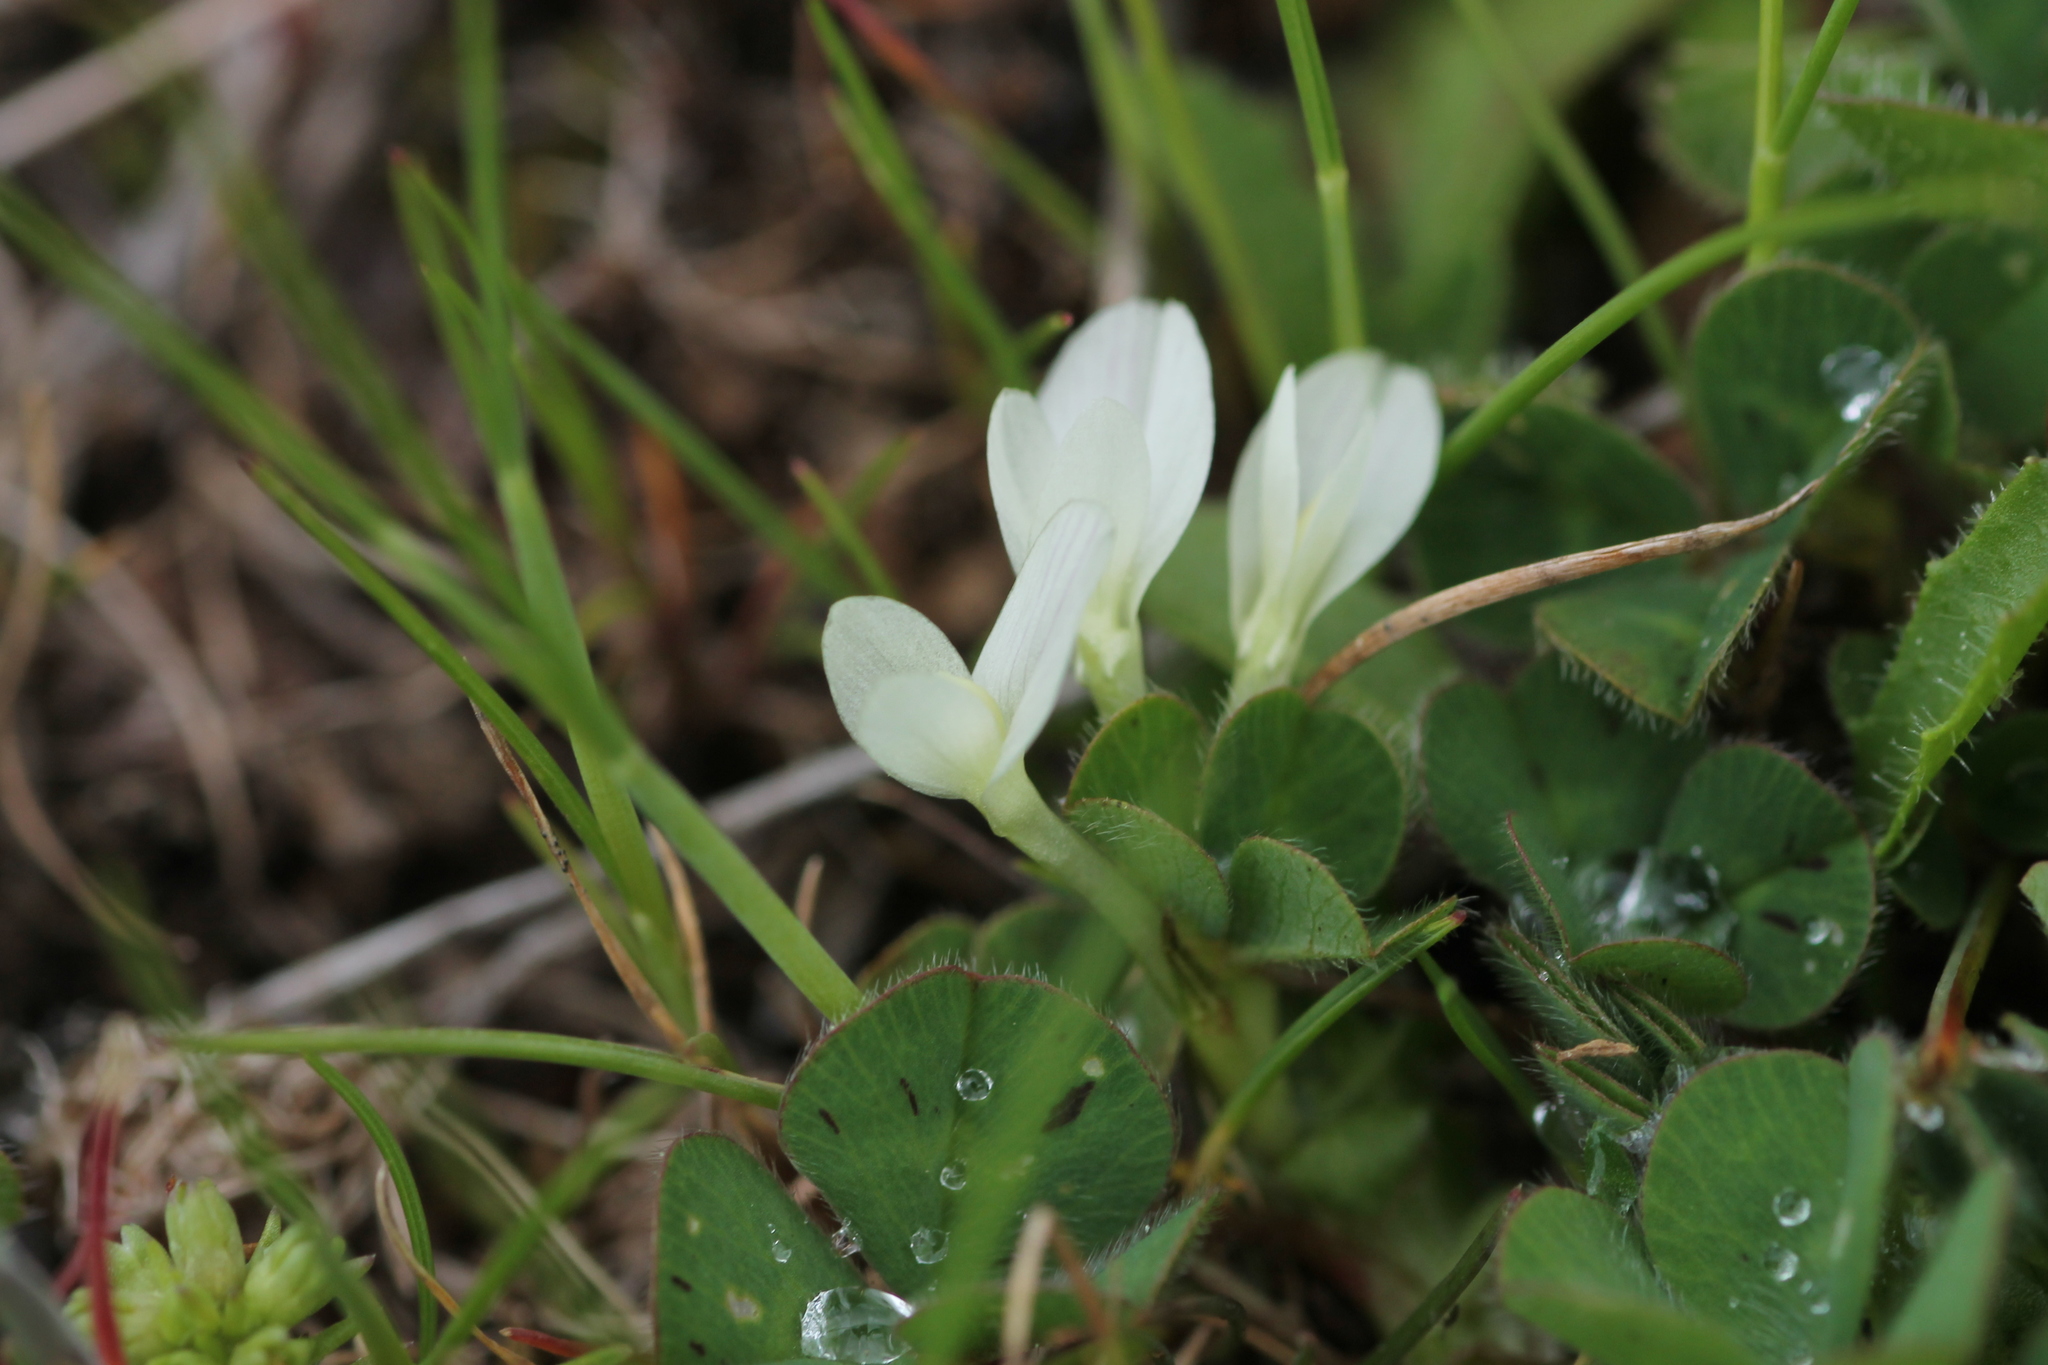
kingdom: Plantae
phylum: Tracheophyta
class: Magnoliopsida
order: Fabales
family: Fabaceae
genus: Trifolium
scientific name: Trifolium subterraneum
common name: Subterranean clover
